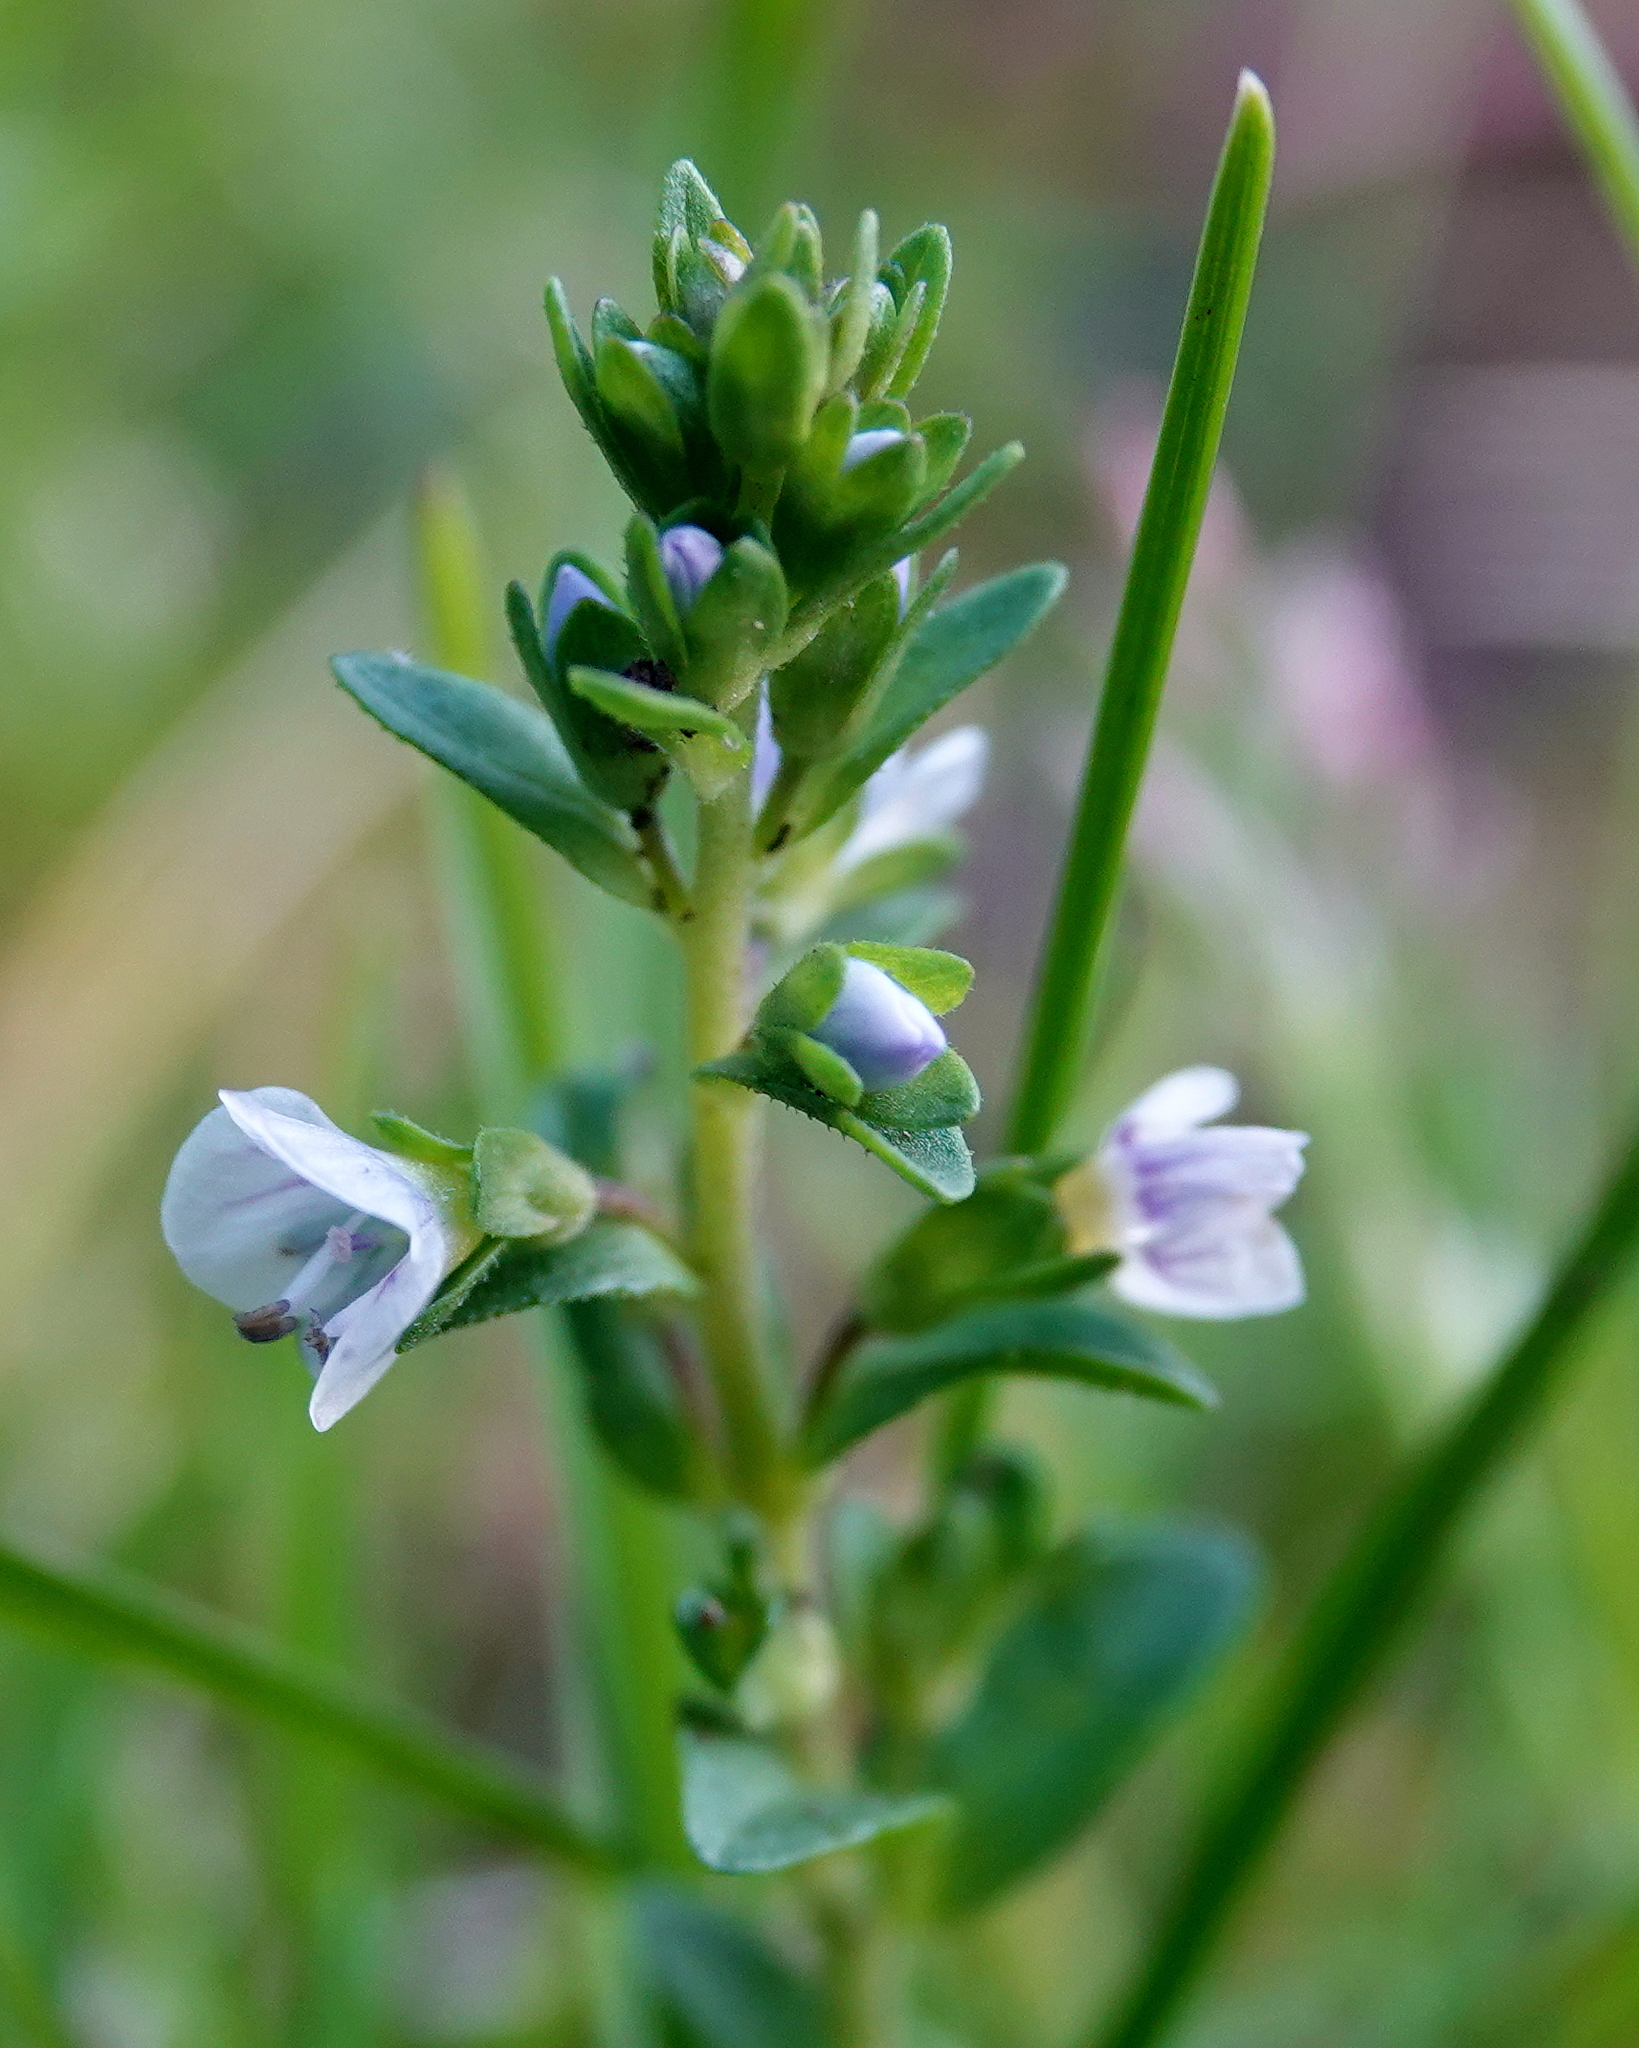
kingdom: Plantae
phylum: Tracheophyta
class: Magnoliopsida
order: Lamiales
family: Plantaginaceae
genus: Veronica
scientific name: Veronica serpyllifolia
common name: Thyme-leaved speedwell
